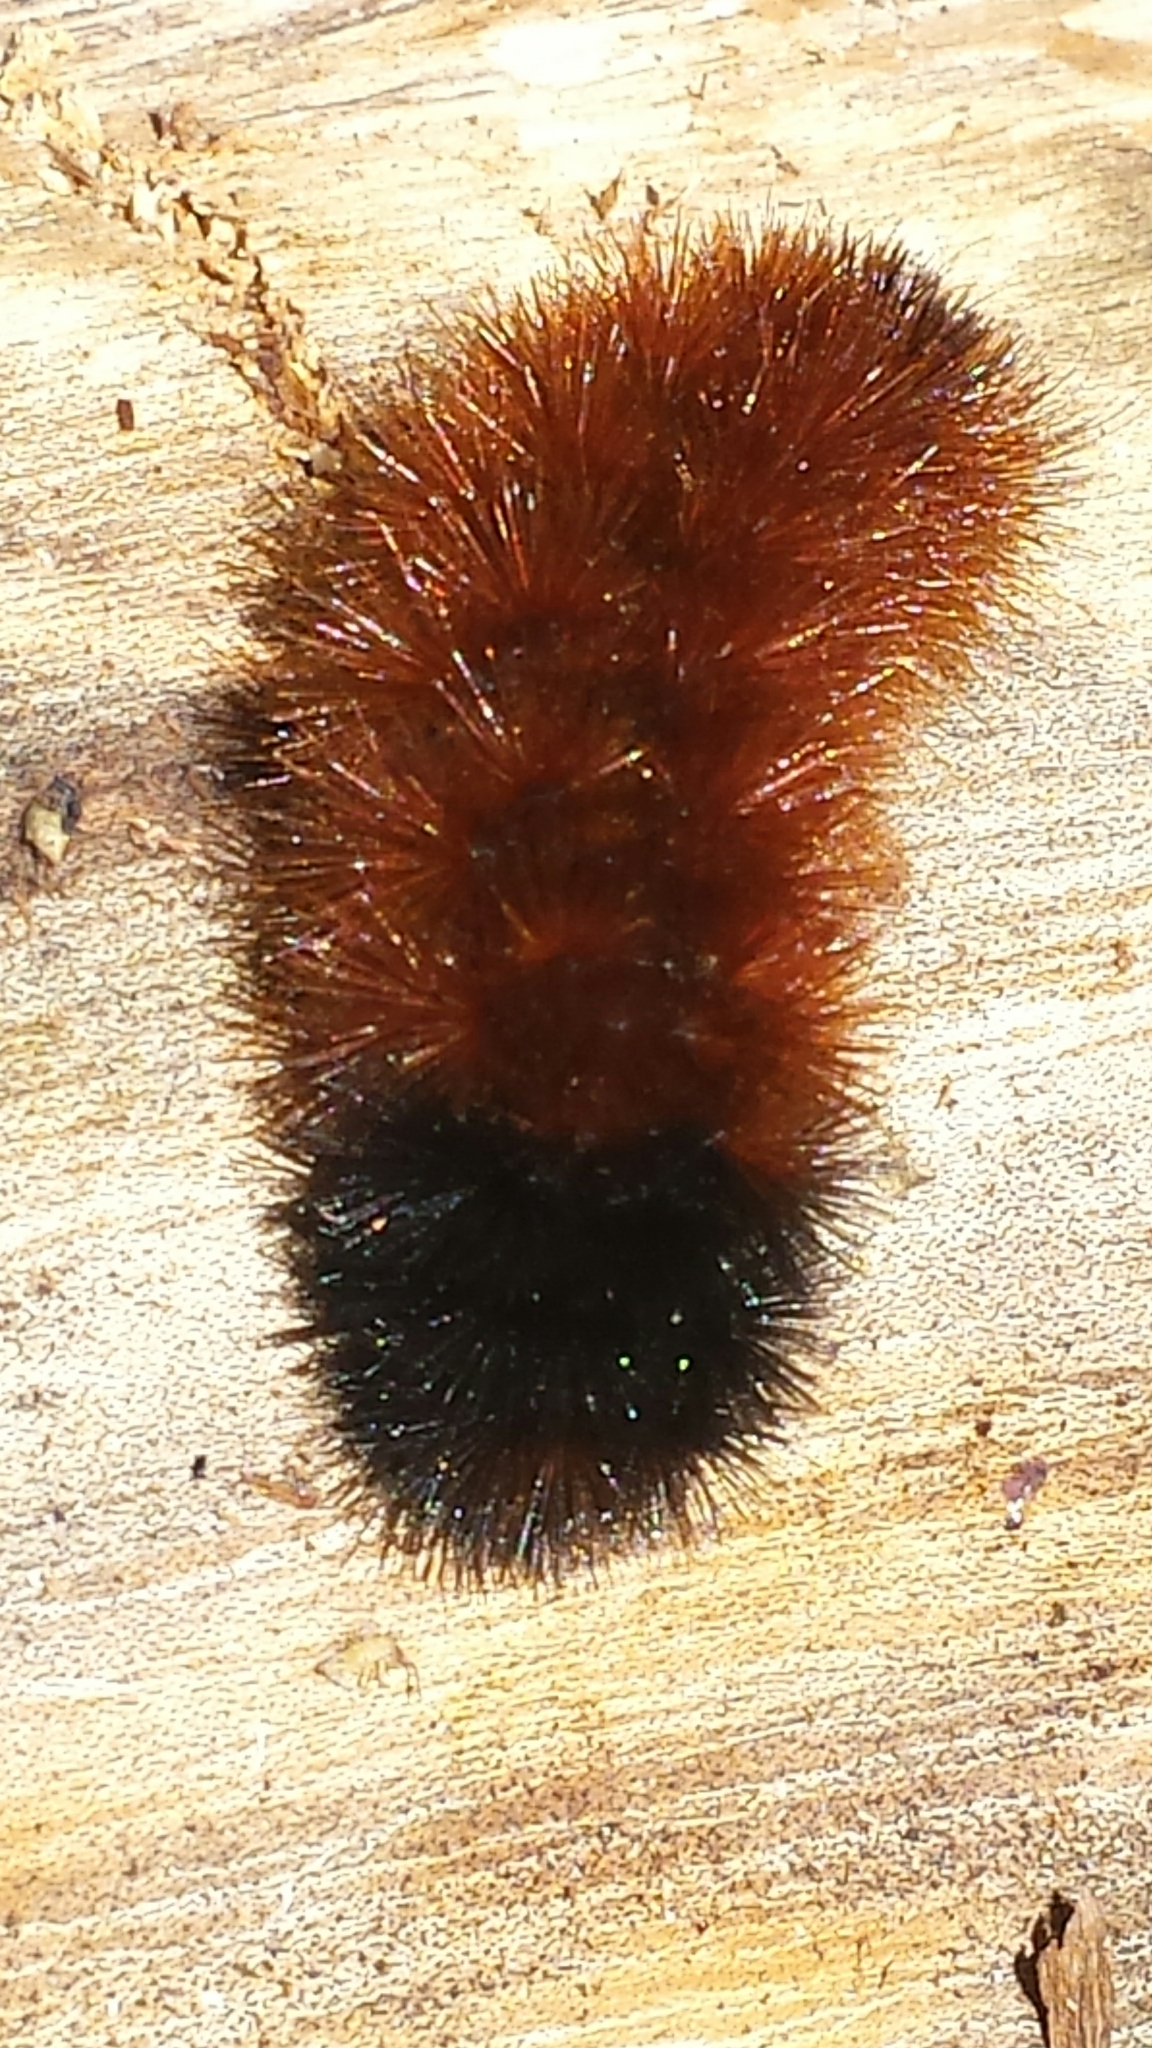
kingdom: Animalia
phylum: Arthropoda
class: Insecta
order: Lepidoptera
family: Erebidae
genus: Pyrrharctia
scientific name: Pyrrharctia isabella
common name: Isabella tiger moth
